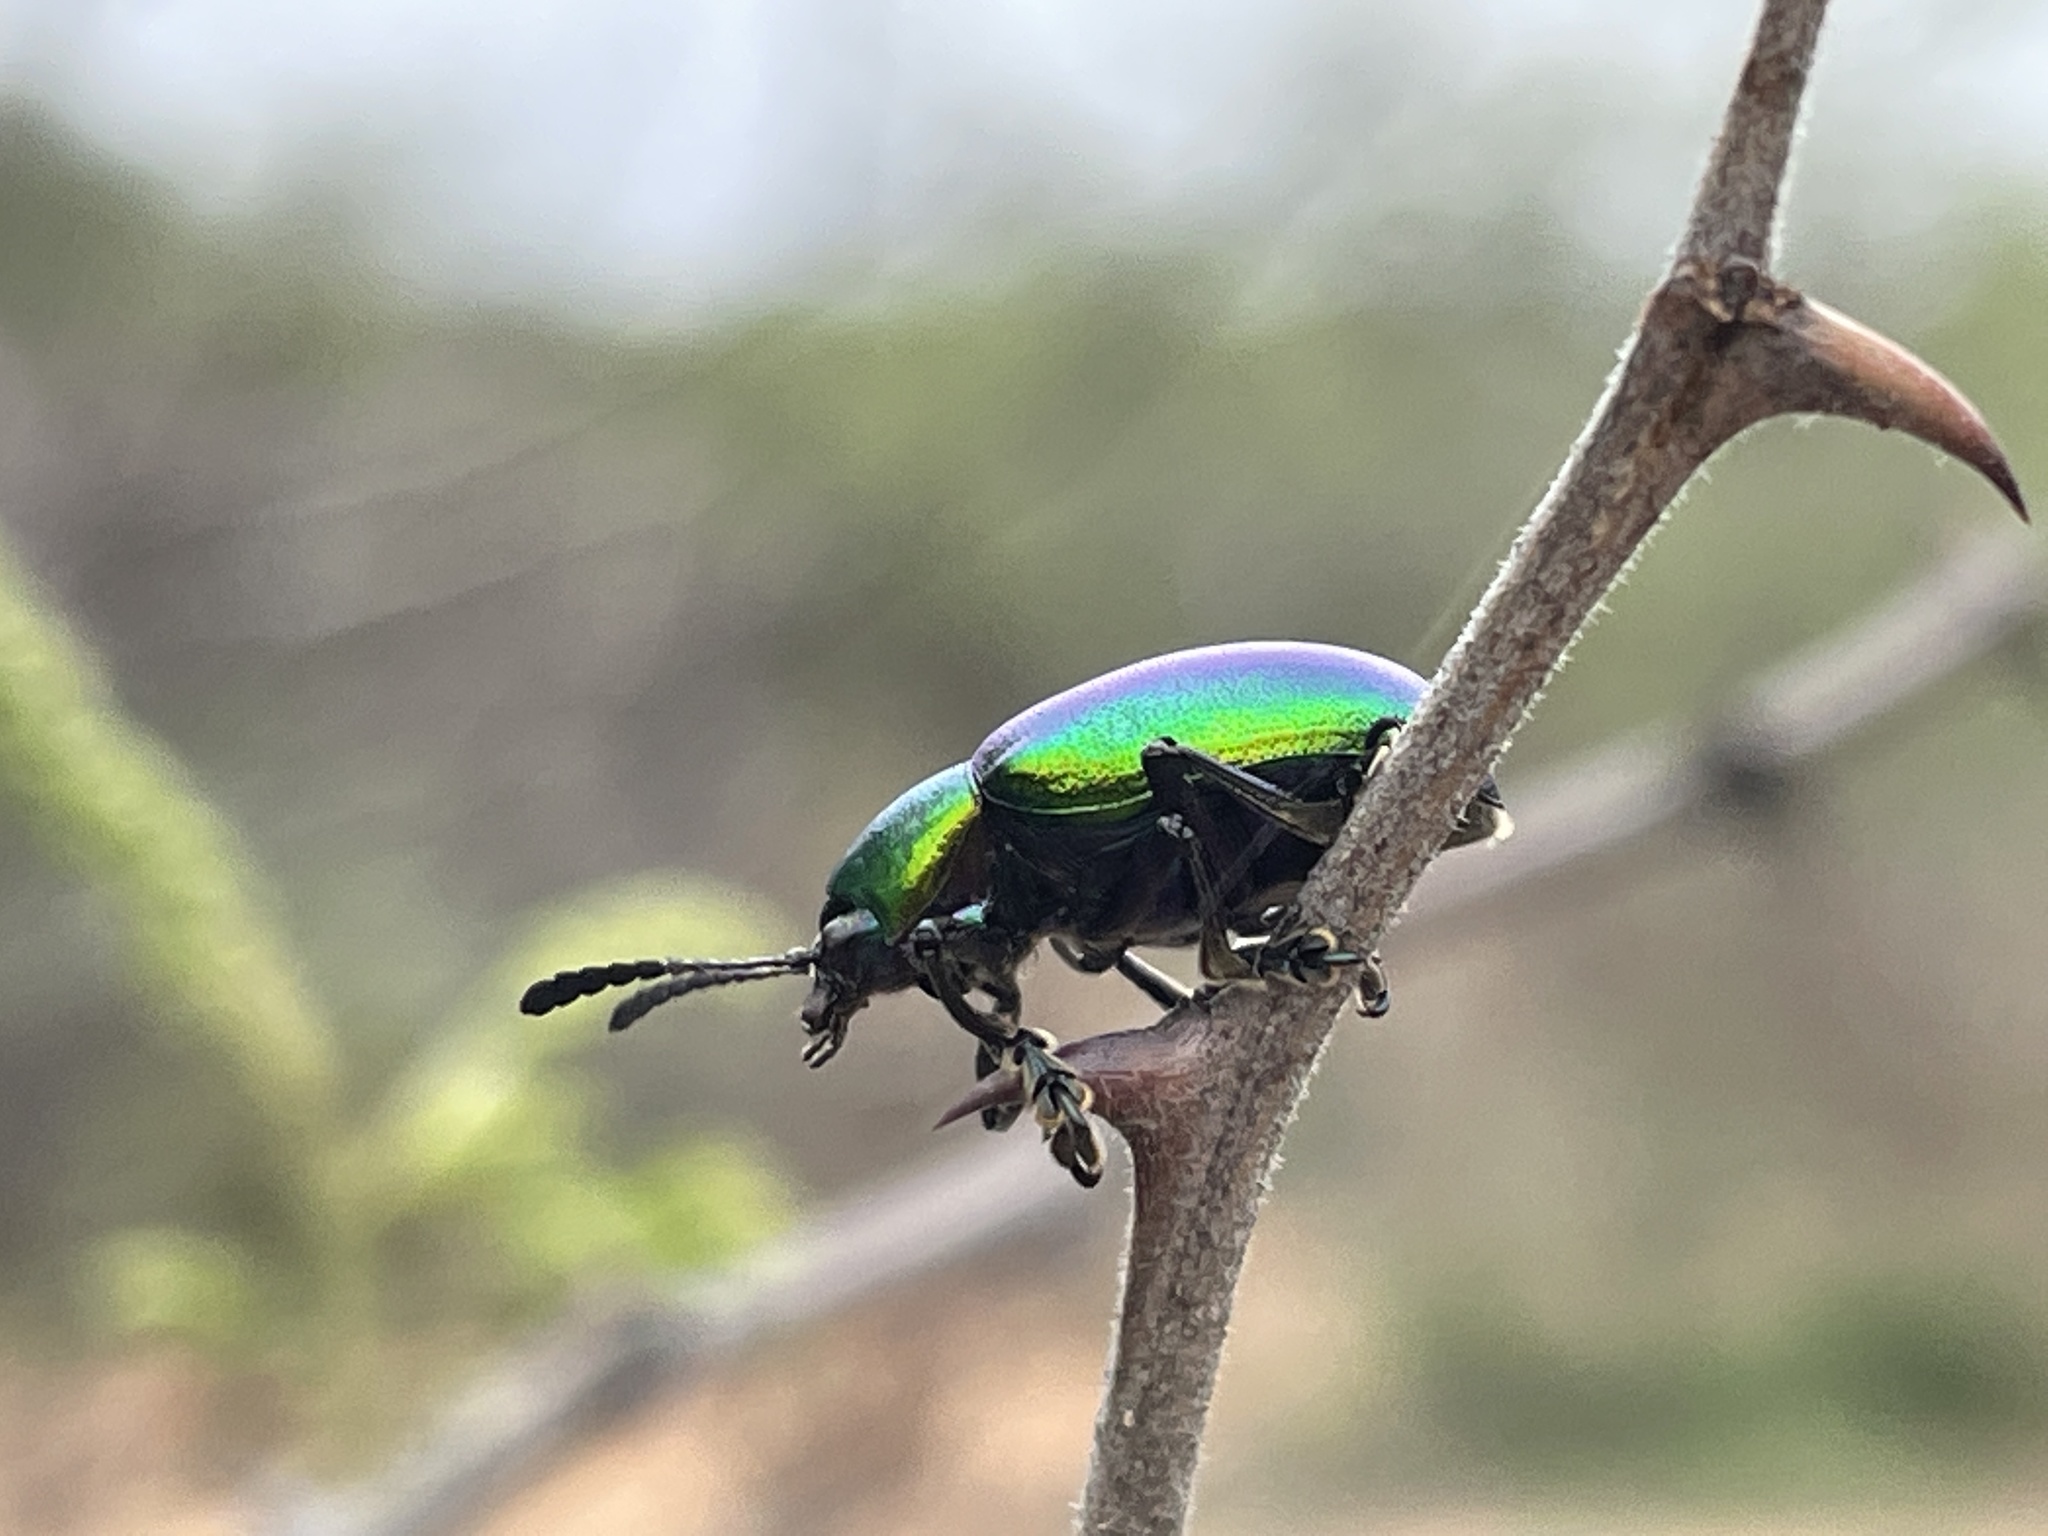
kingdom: Animalia
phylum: Arthropoda
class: Insecta
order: Coleoptera
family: Chrysomelidae
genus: Platycorynus
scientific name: Platycorynus dejeani
